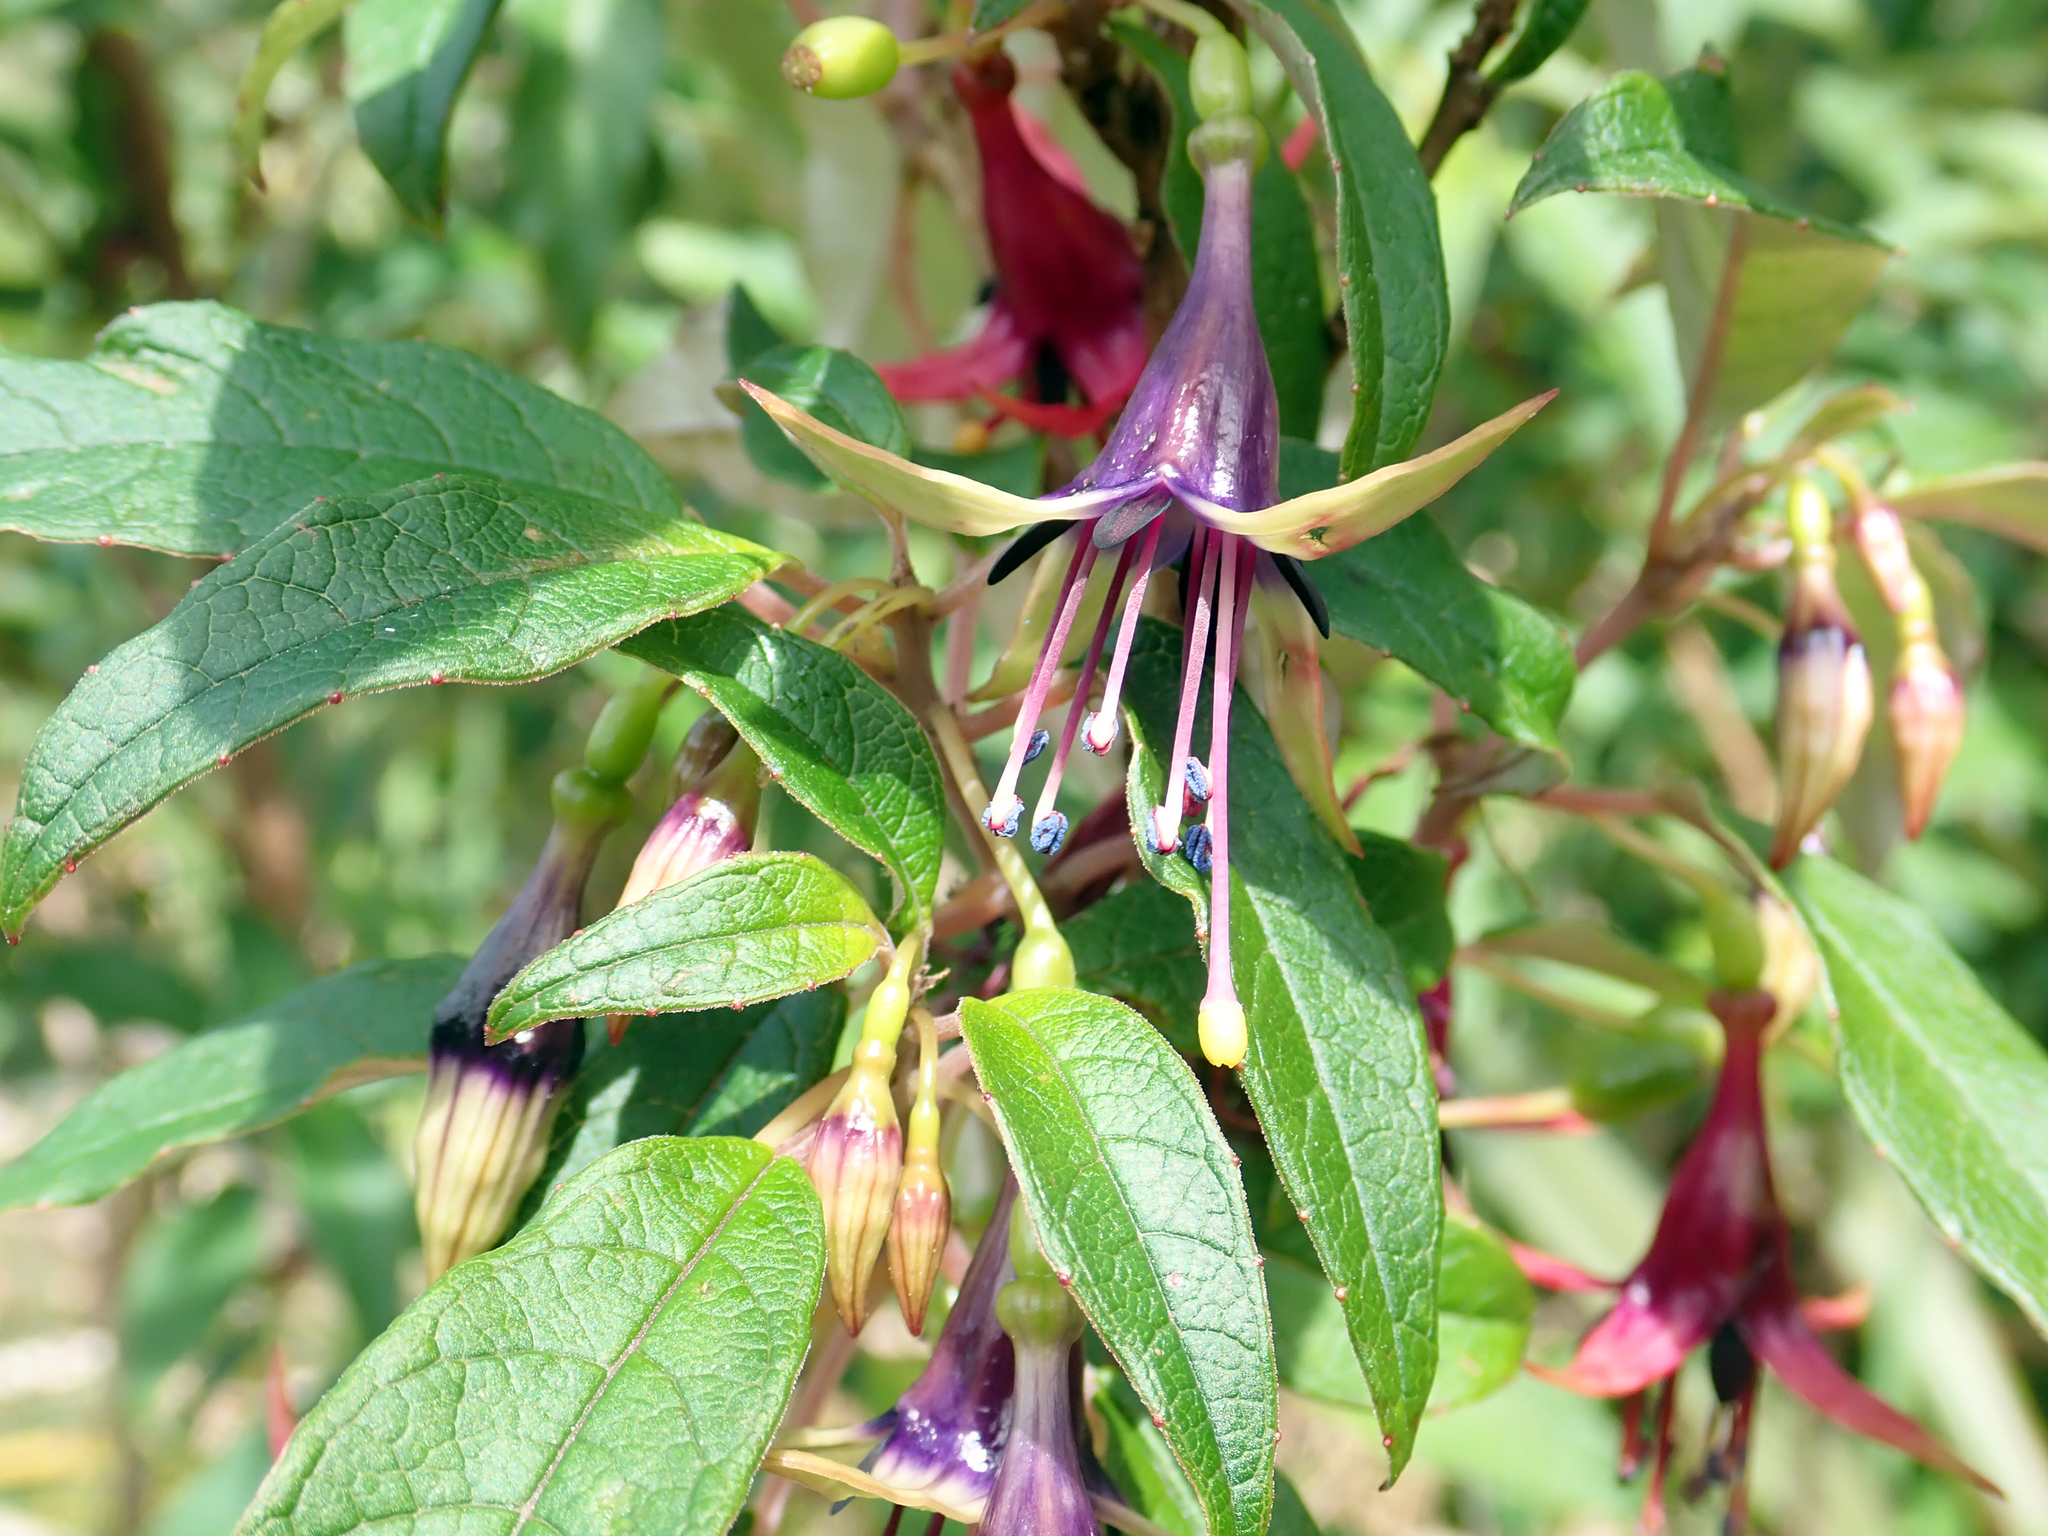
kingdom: Plantae
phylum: Tracheophyta
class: Magnoliopsida
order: Myrtales
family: Onagraceae
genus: Fuchsia
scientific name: Fuchsia excorticata
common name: Tree fuchsia
